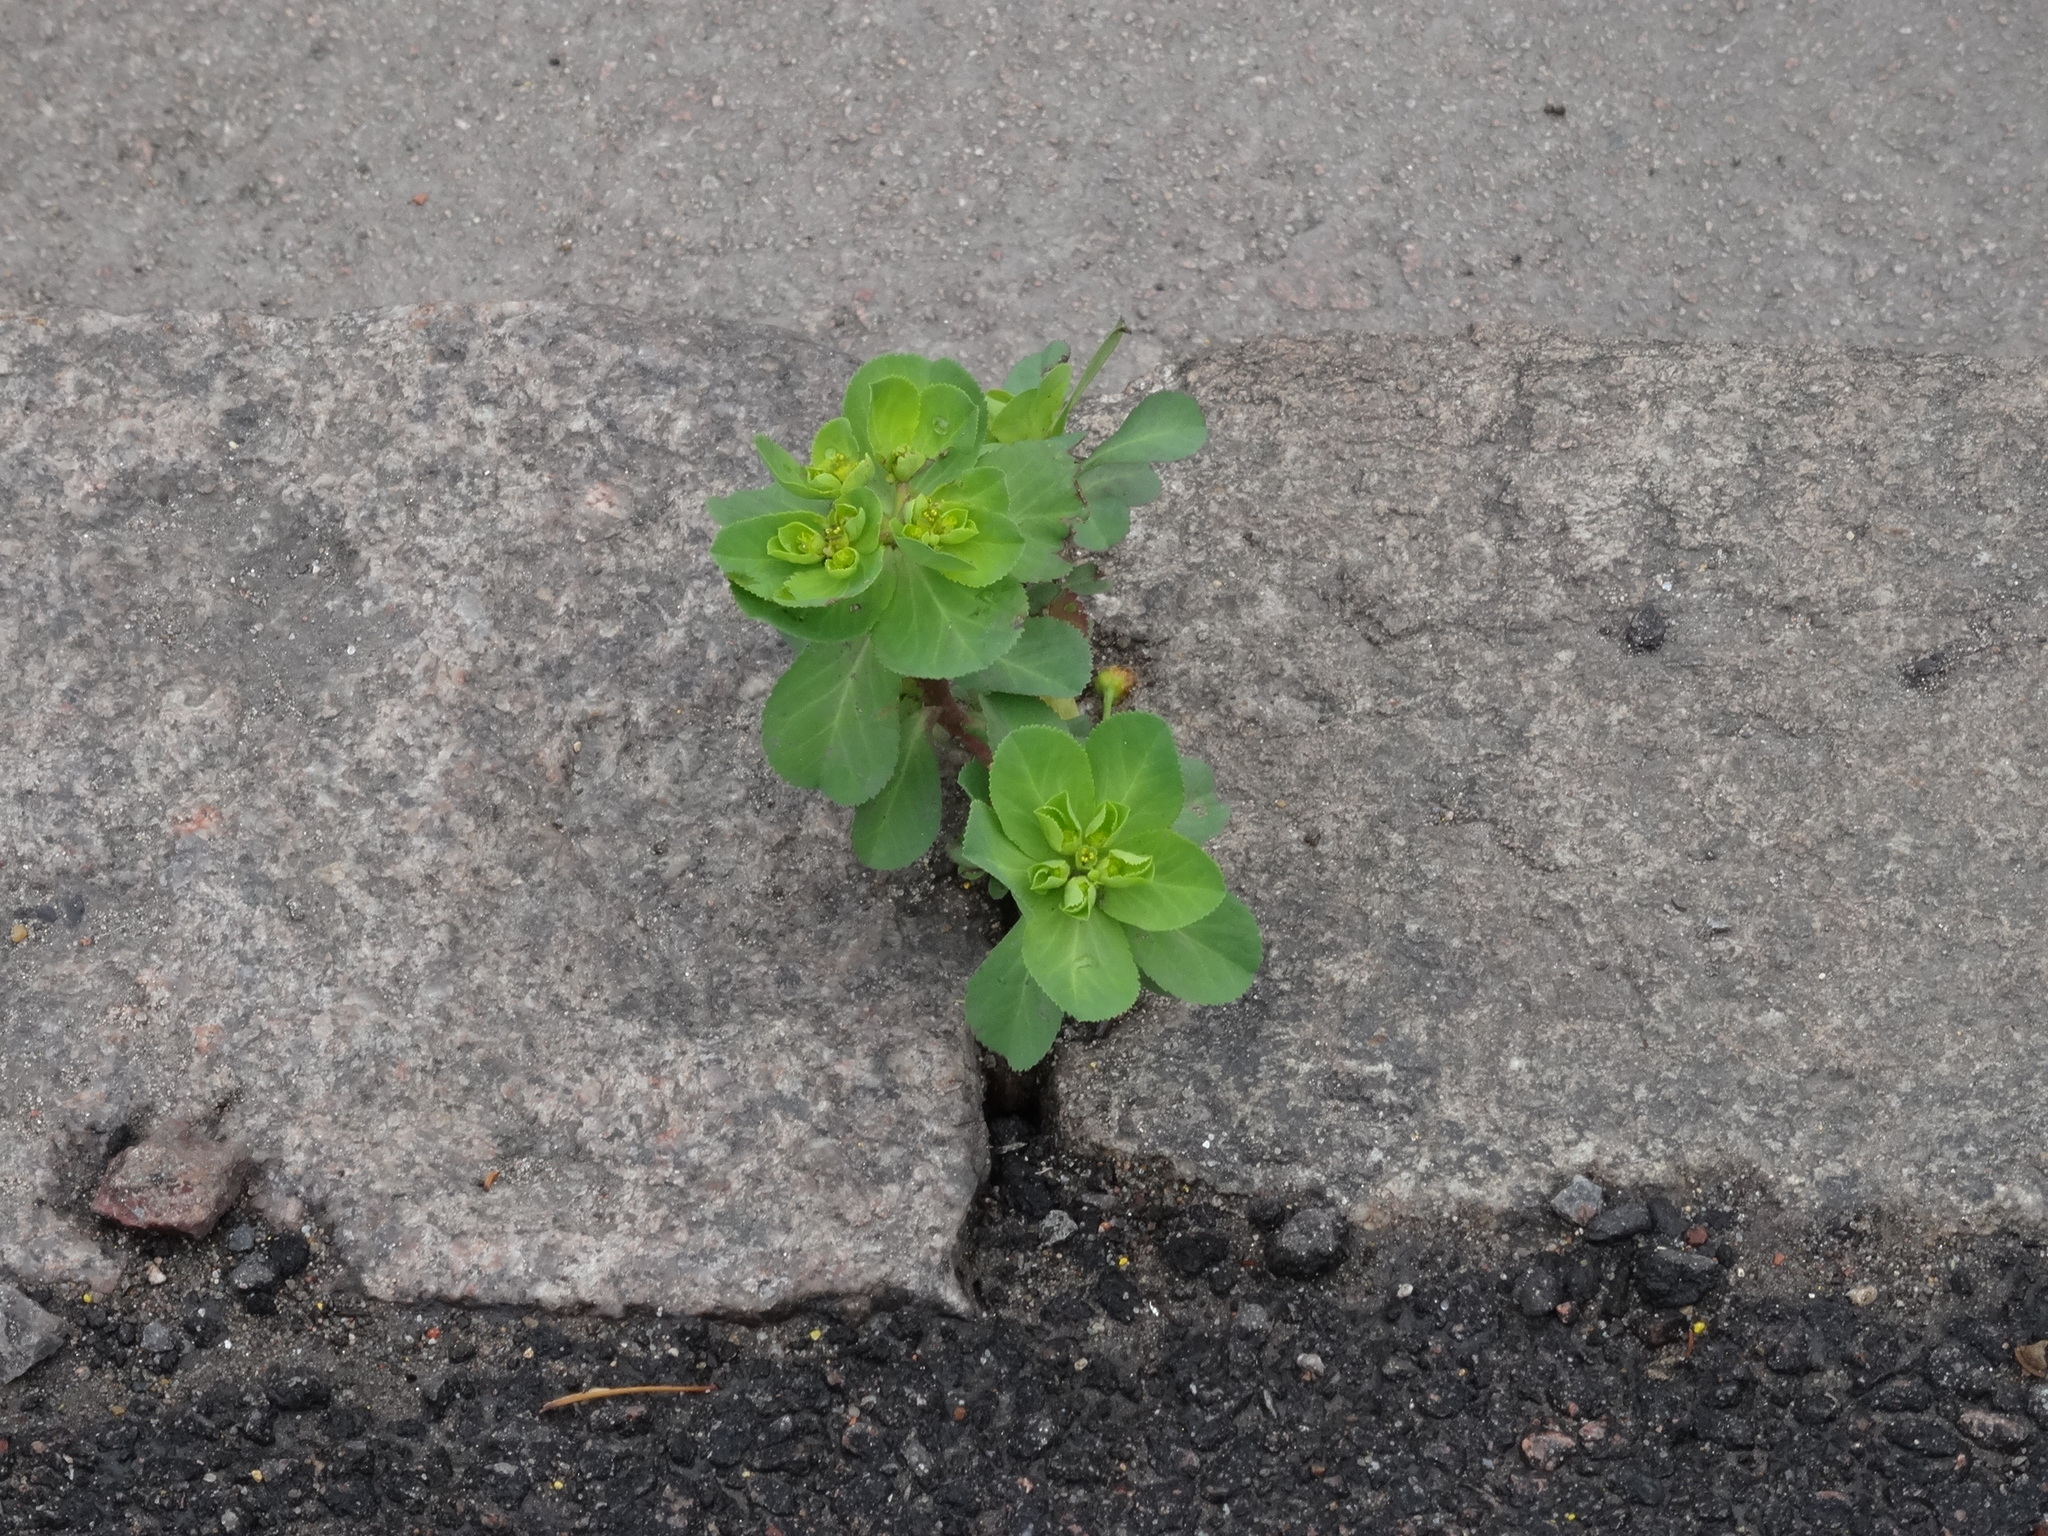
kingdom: Plantae
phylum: Tracheophyta
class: Magnoliopsida
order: Malpighiales
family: Euphorbiaceae
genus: Euphorbia
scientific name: Euphorbia helioscopia
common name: Sun spurge
